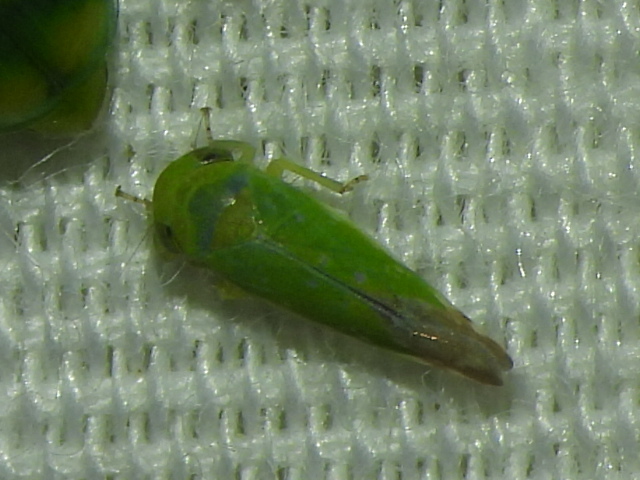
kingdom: Animalia
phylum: Arthropoda
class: Insecta
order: Hemiptera
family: Cicadellidae
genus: Opsius
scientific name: Opsius stactogalus
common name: Leafhopper
